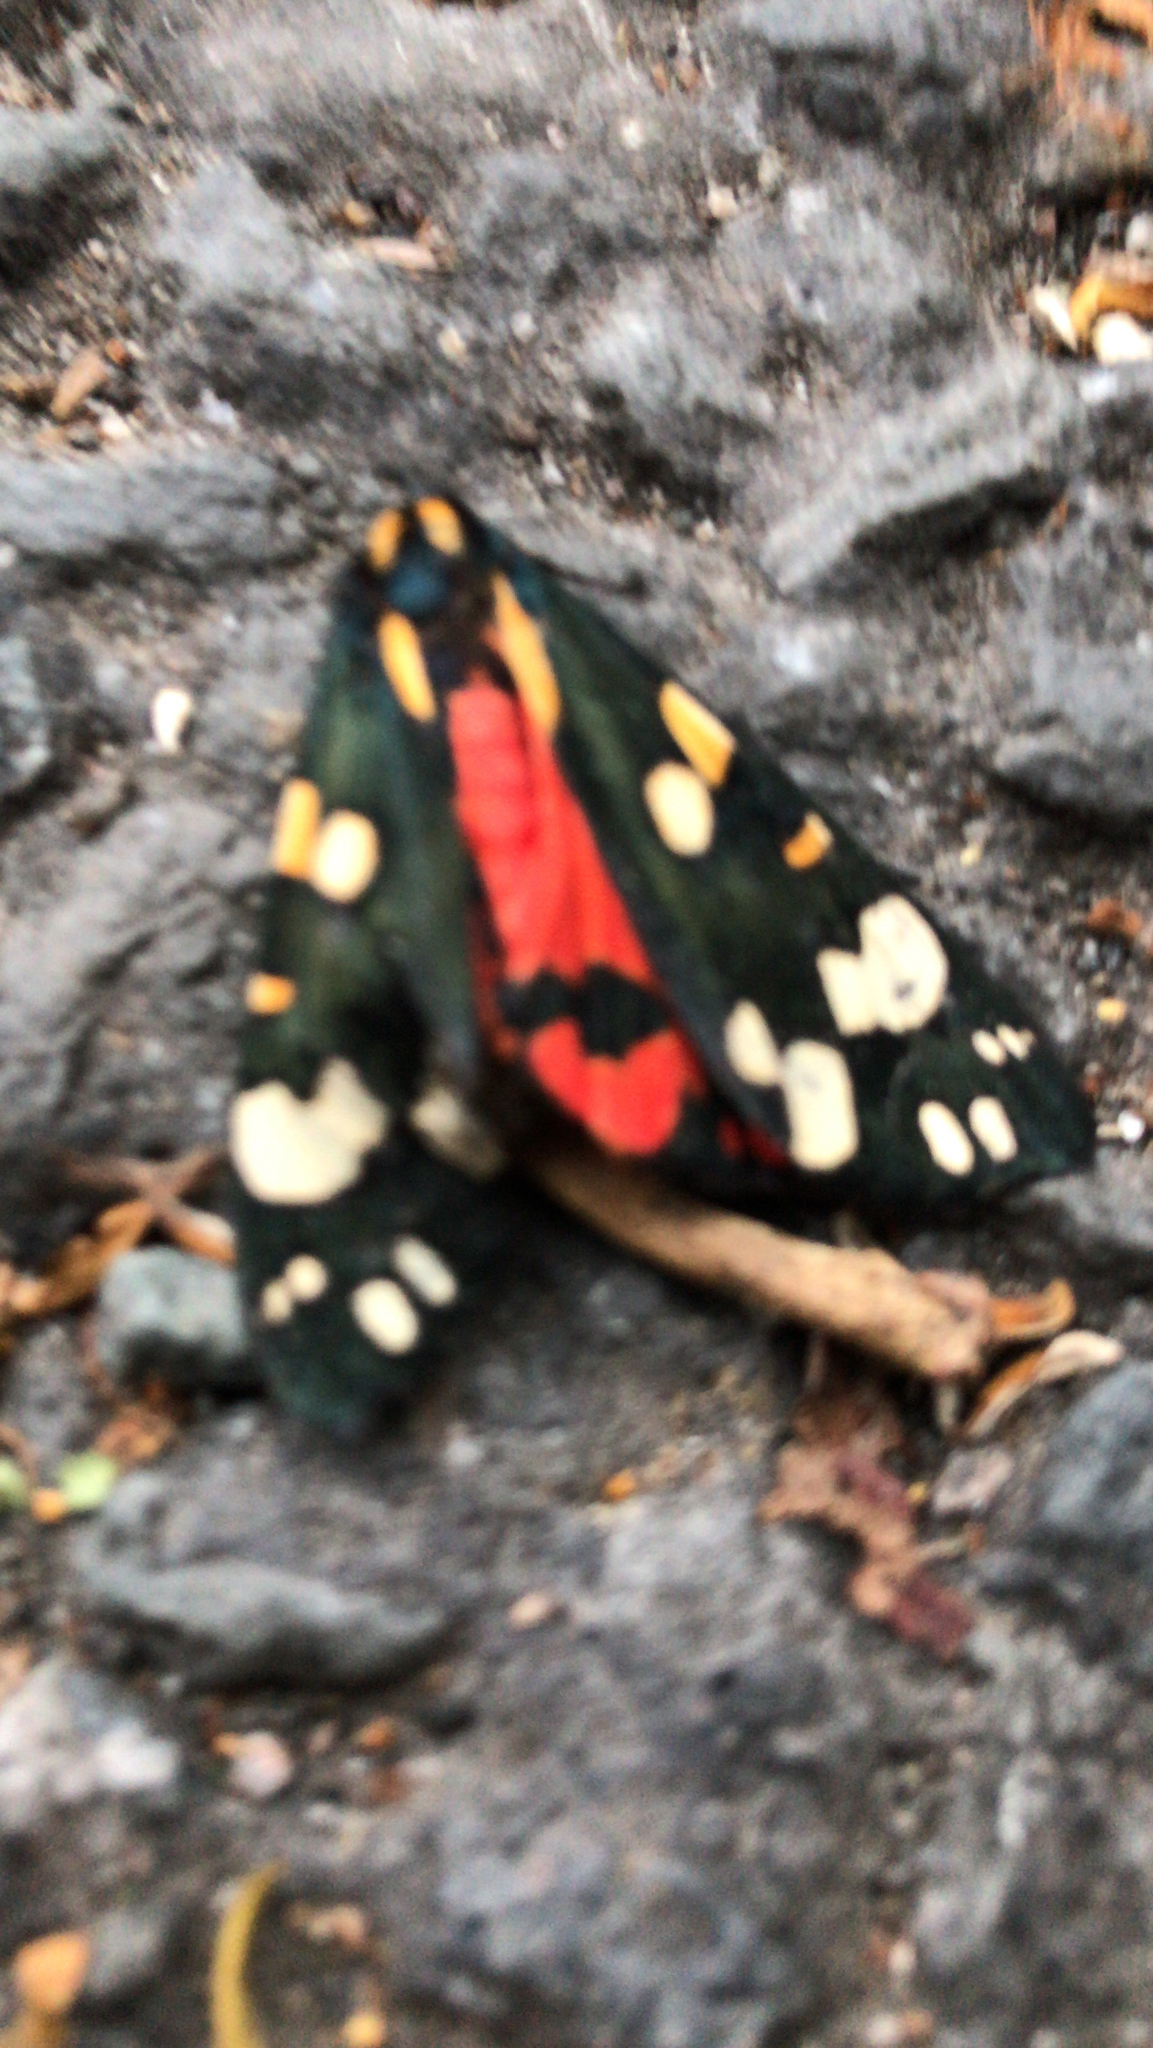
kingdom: Animalia
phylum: Arthropoda
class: Insecta
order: Lepidoptera
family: Erebidae
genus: Callimorpha
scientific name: Callimorpha dominula
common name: Scarlet tiger
